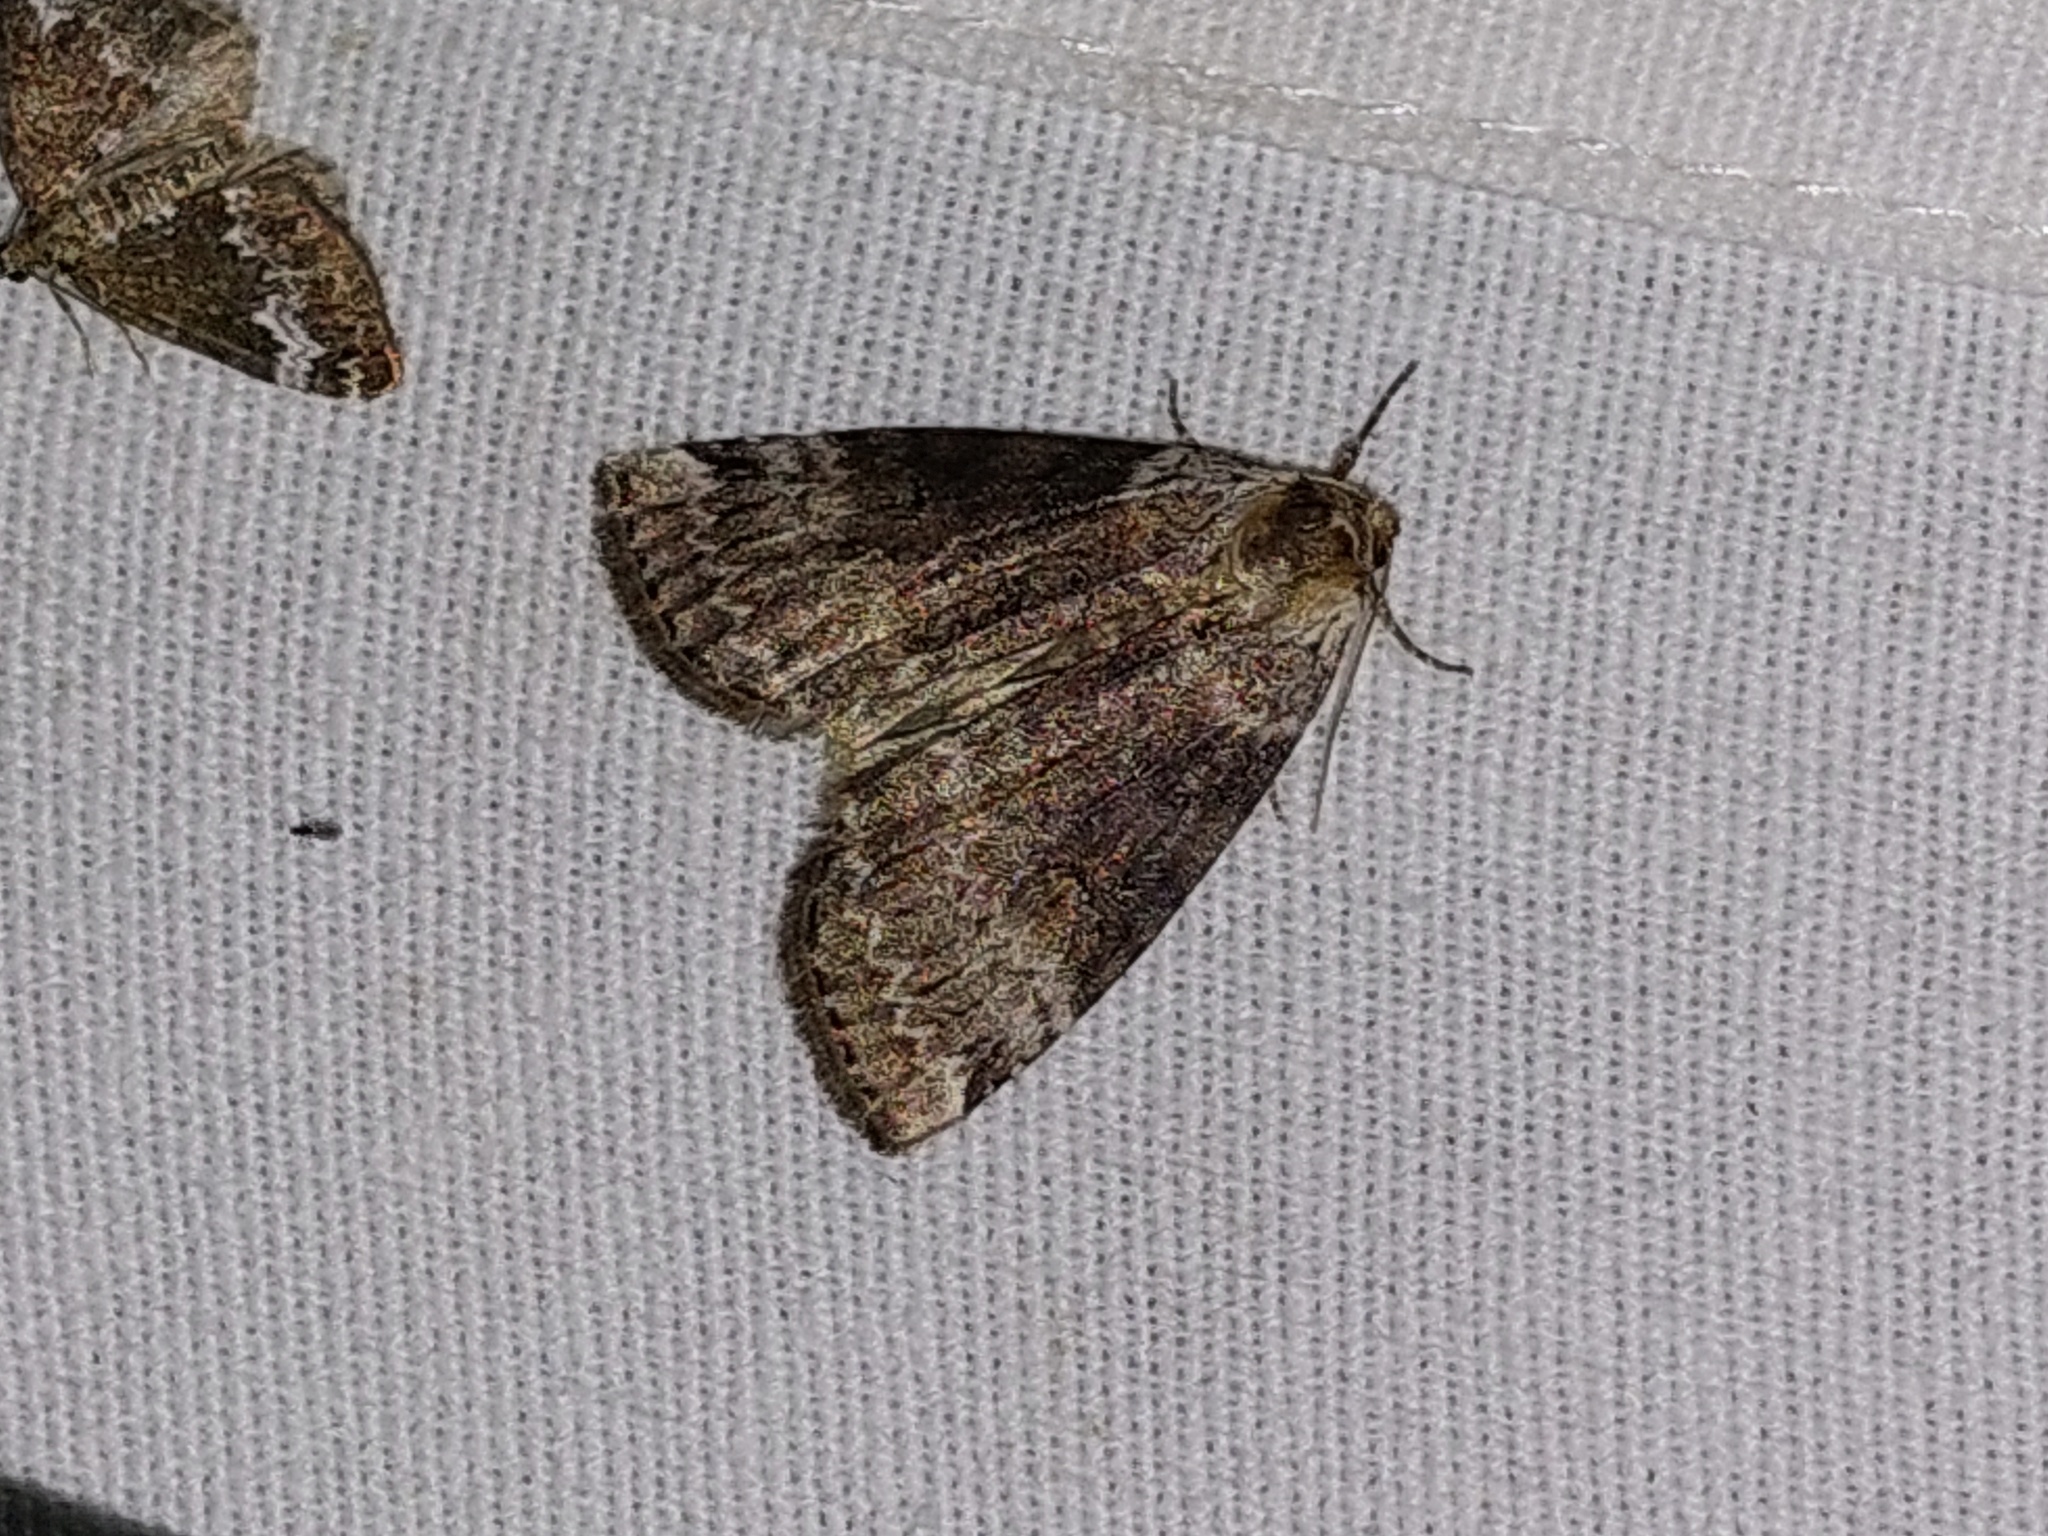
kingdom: Animalia
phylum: Arthropoda
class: Insecta
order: Lepidoptera
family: Drepanidae
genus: Tetheella
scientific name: Tetheella fluctuosa
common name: Satin lutestring
